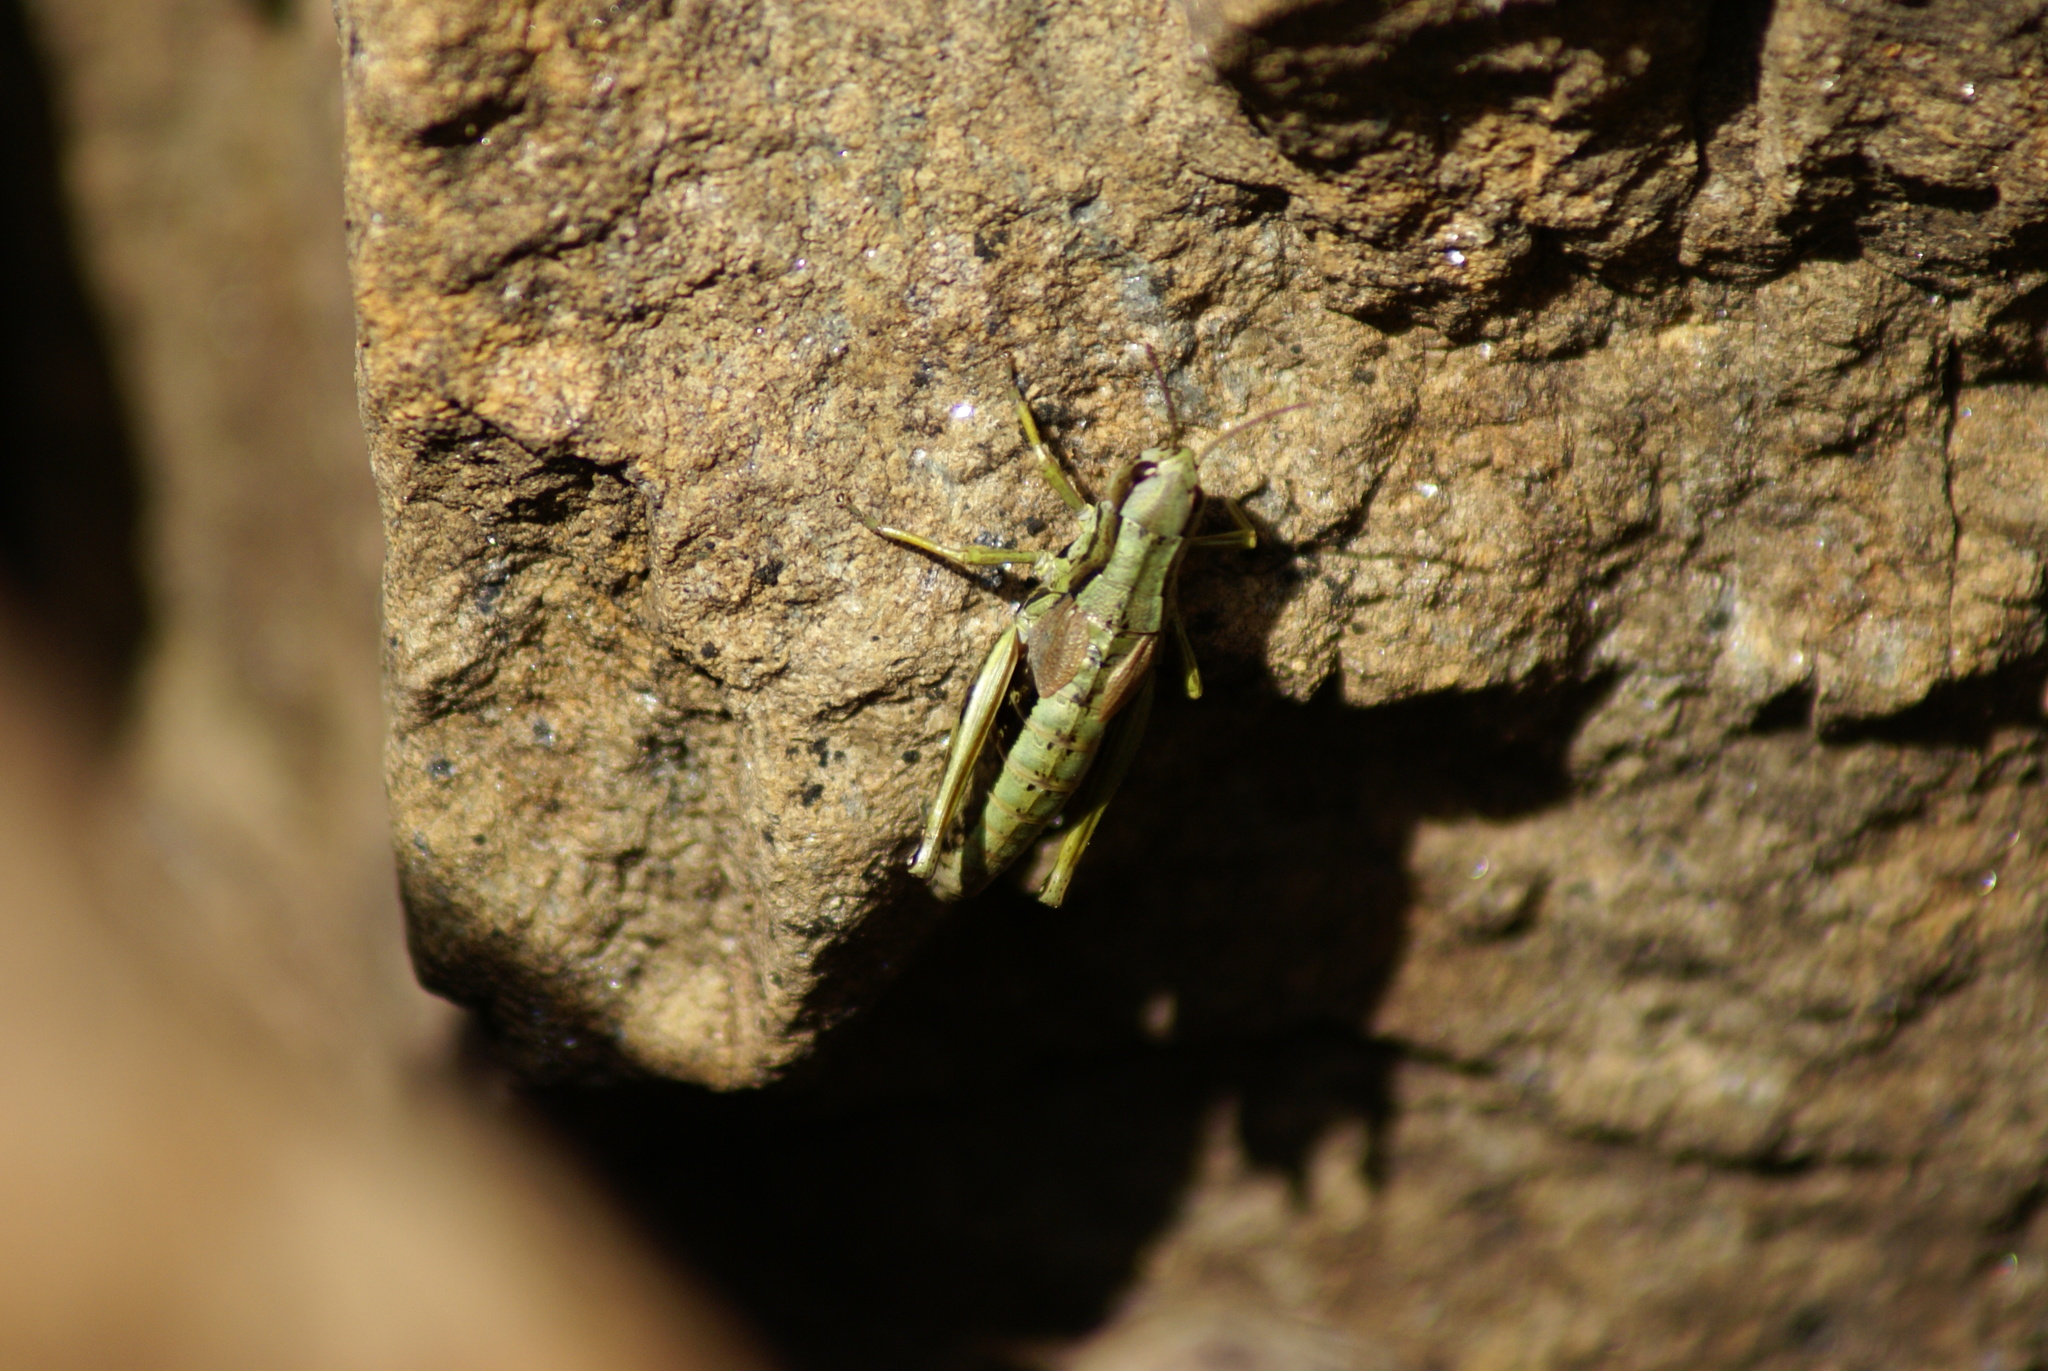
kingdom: Animalia
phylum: Arthropoda
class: Insecta
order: Orthoptera
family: Acrididae
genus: Podismopsis
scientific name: Podismopsis poppiusi
